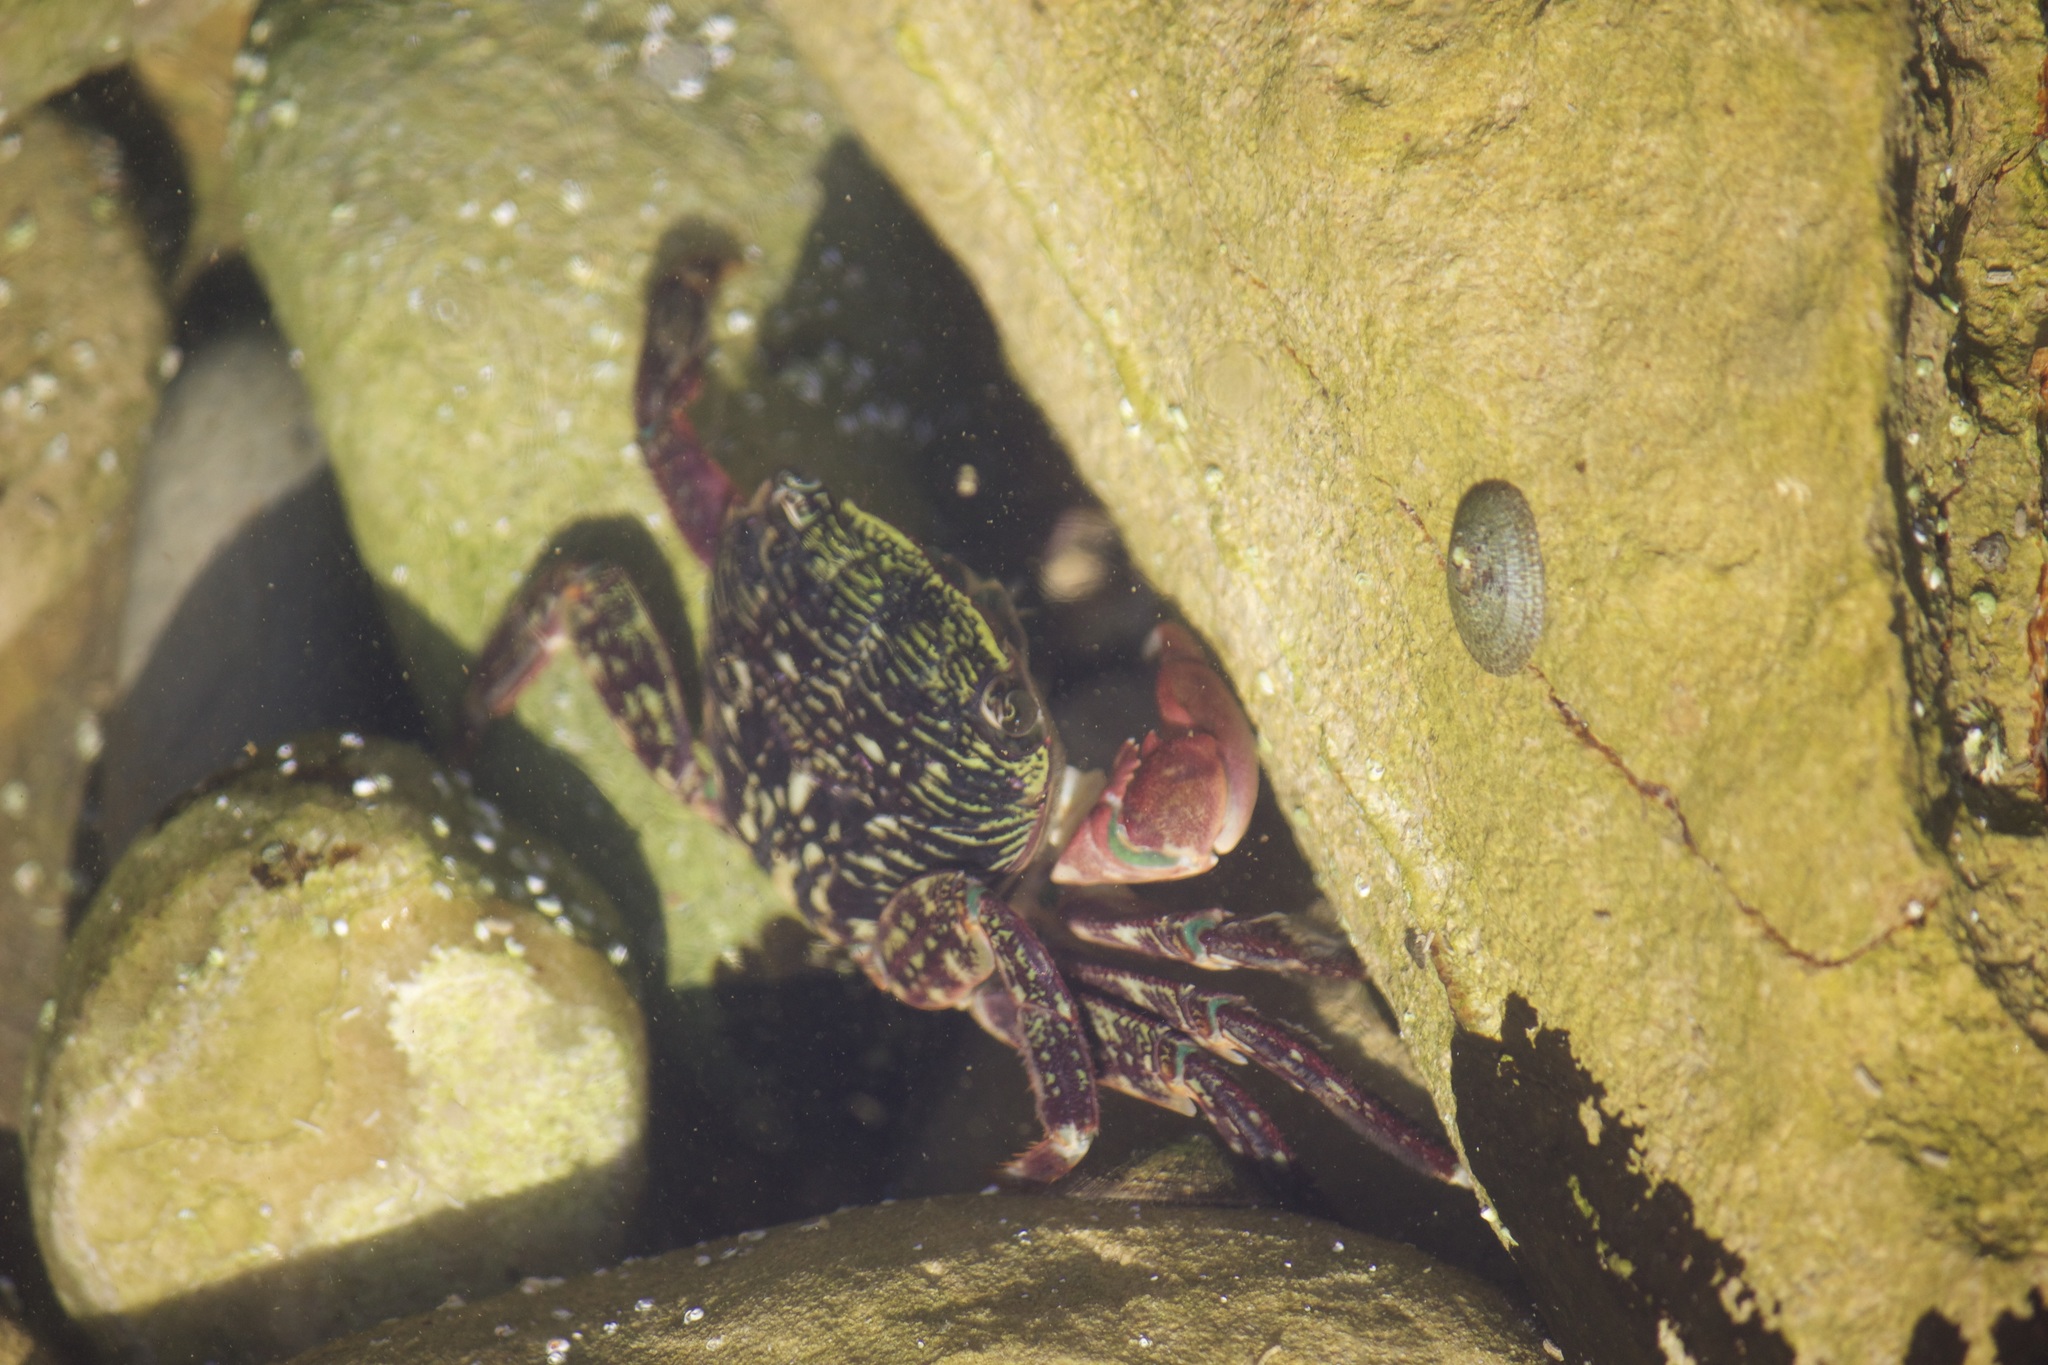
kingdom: Animalia
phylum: Arthropoda
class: Malacostraca
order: Decapoda
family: Grapsidae
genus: Pachygrapsus
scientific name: Pachygrapsus crassipes
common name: Striped shore crab
